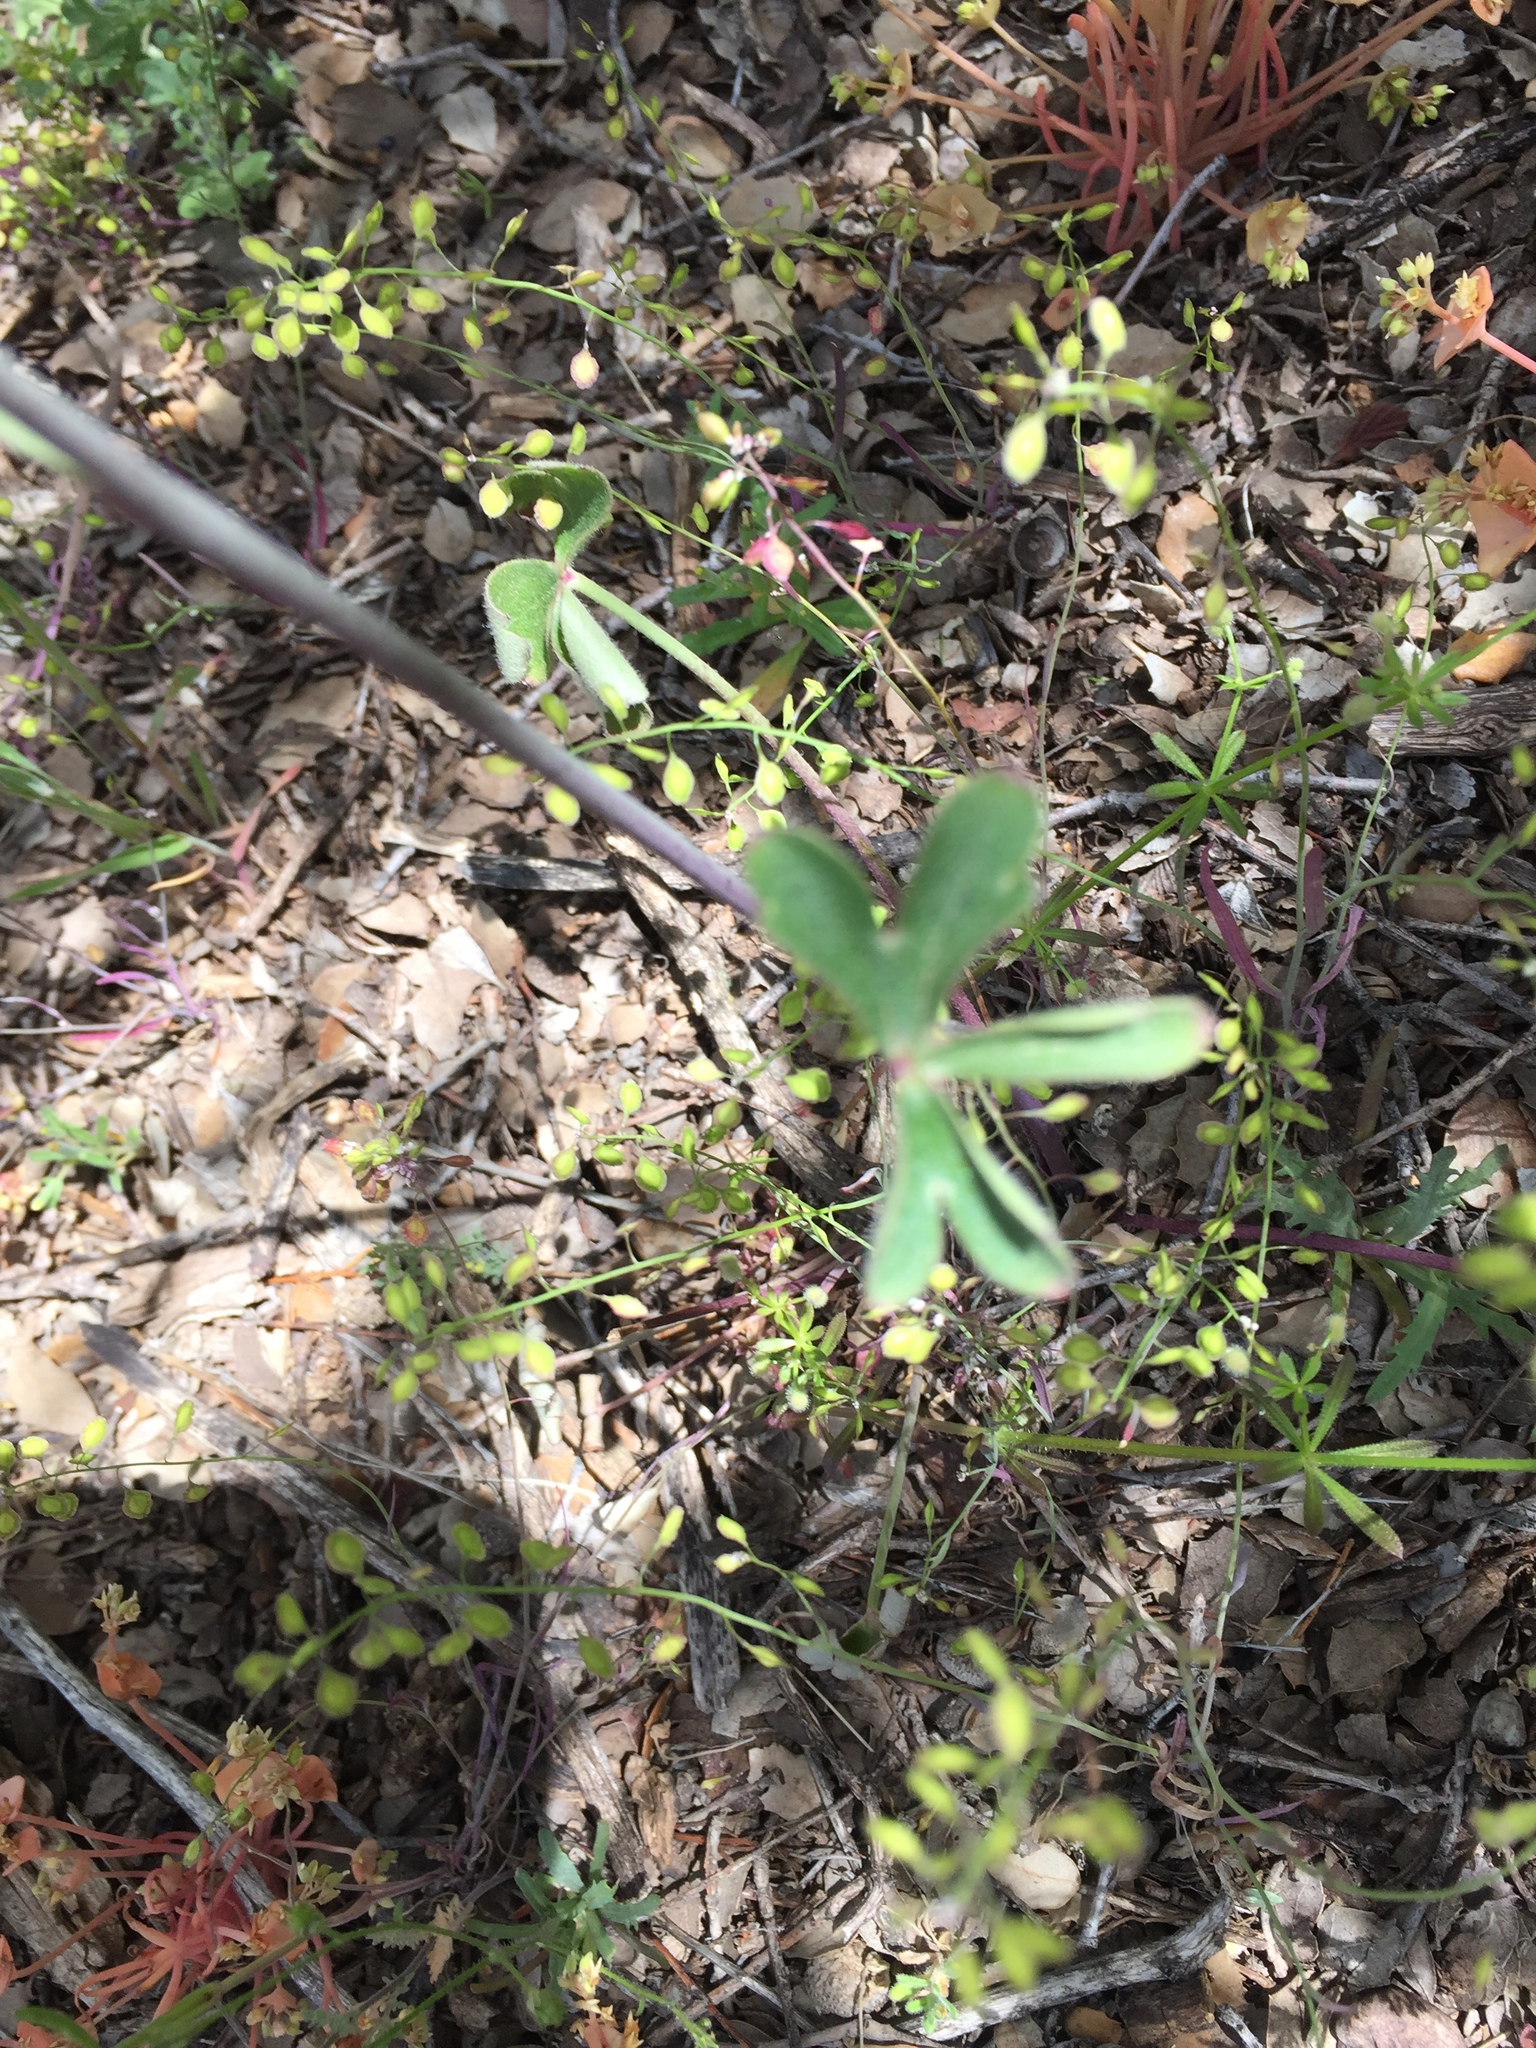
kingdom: Plantae
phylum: Tracheophyta
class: Magnoliopsida
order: Ranunculales
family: Ranunculaceae
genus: Delphinium
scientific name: Delphinium patens
